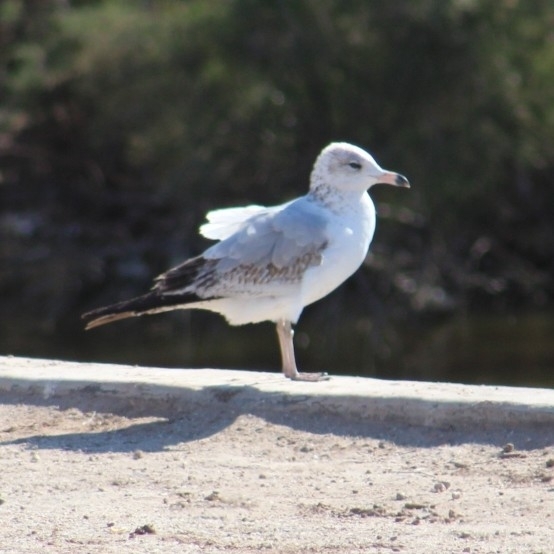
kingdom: Animalia
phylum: Chordata
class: Aves
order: Charadriiformes
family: Laridae
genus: Larus
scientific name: Larus delawarensis
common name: Ring-billed gull
